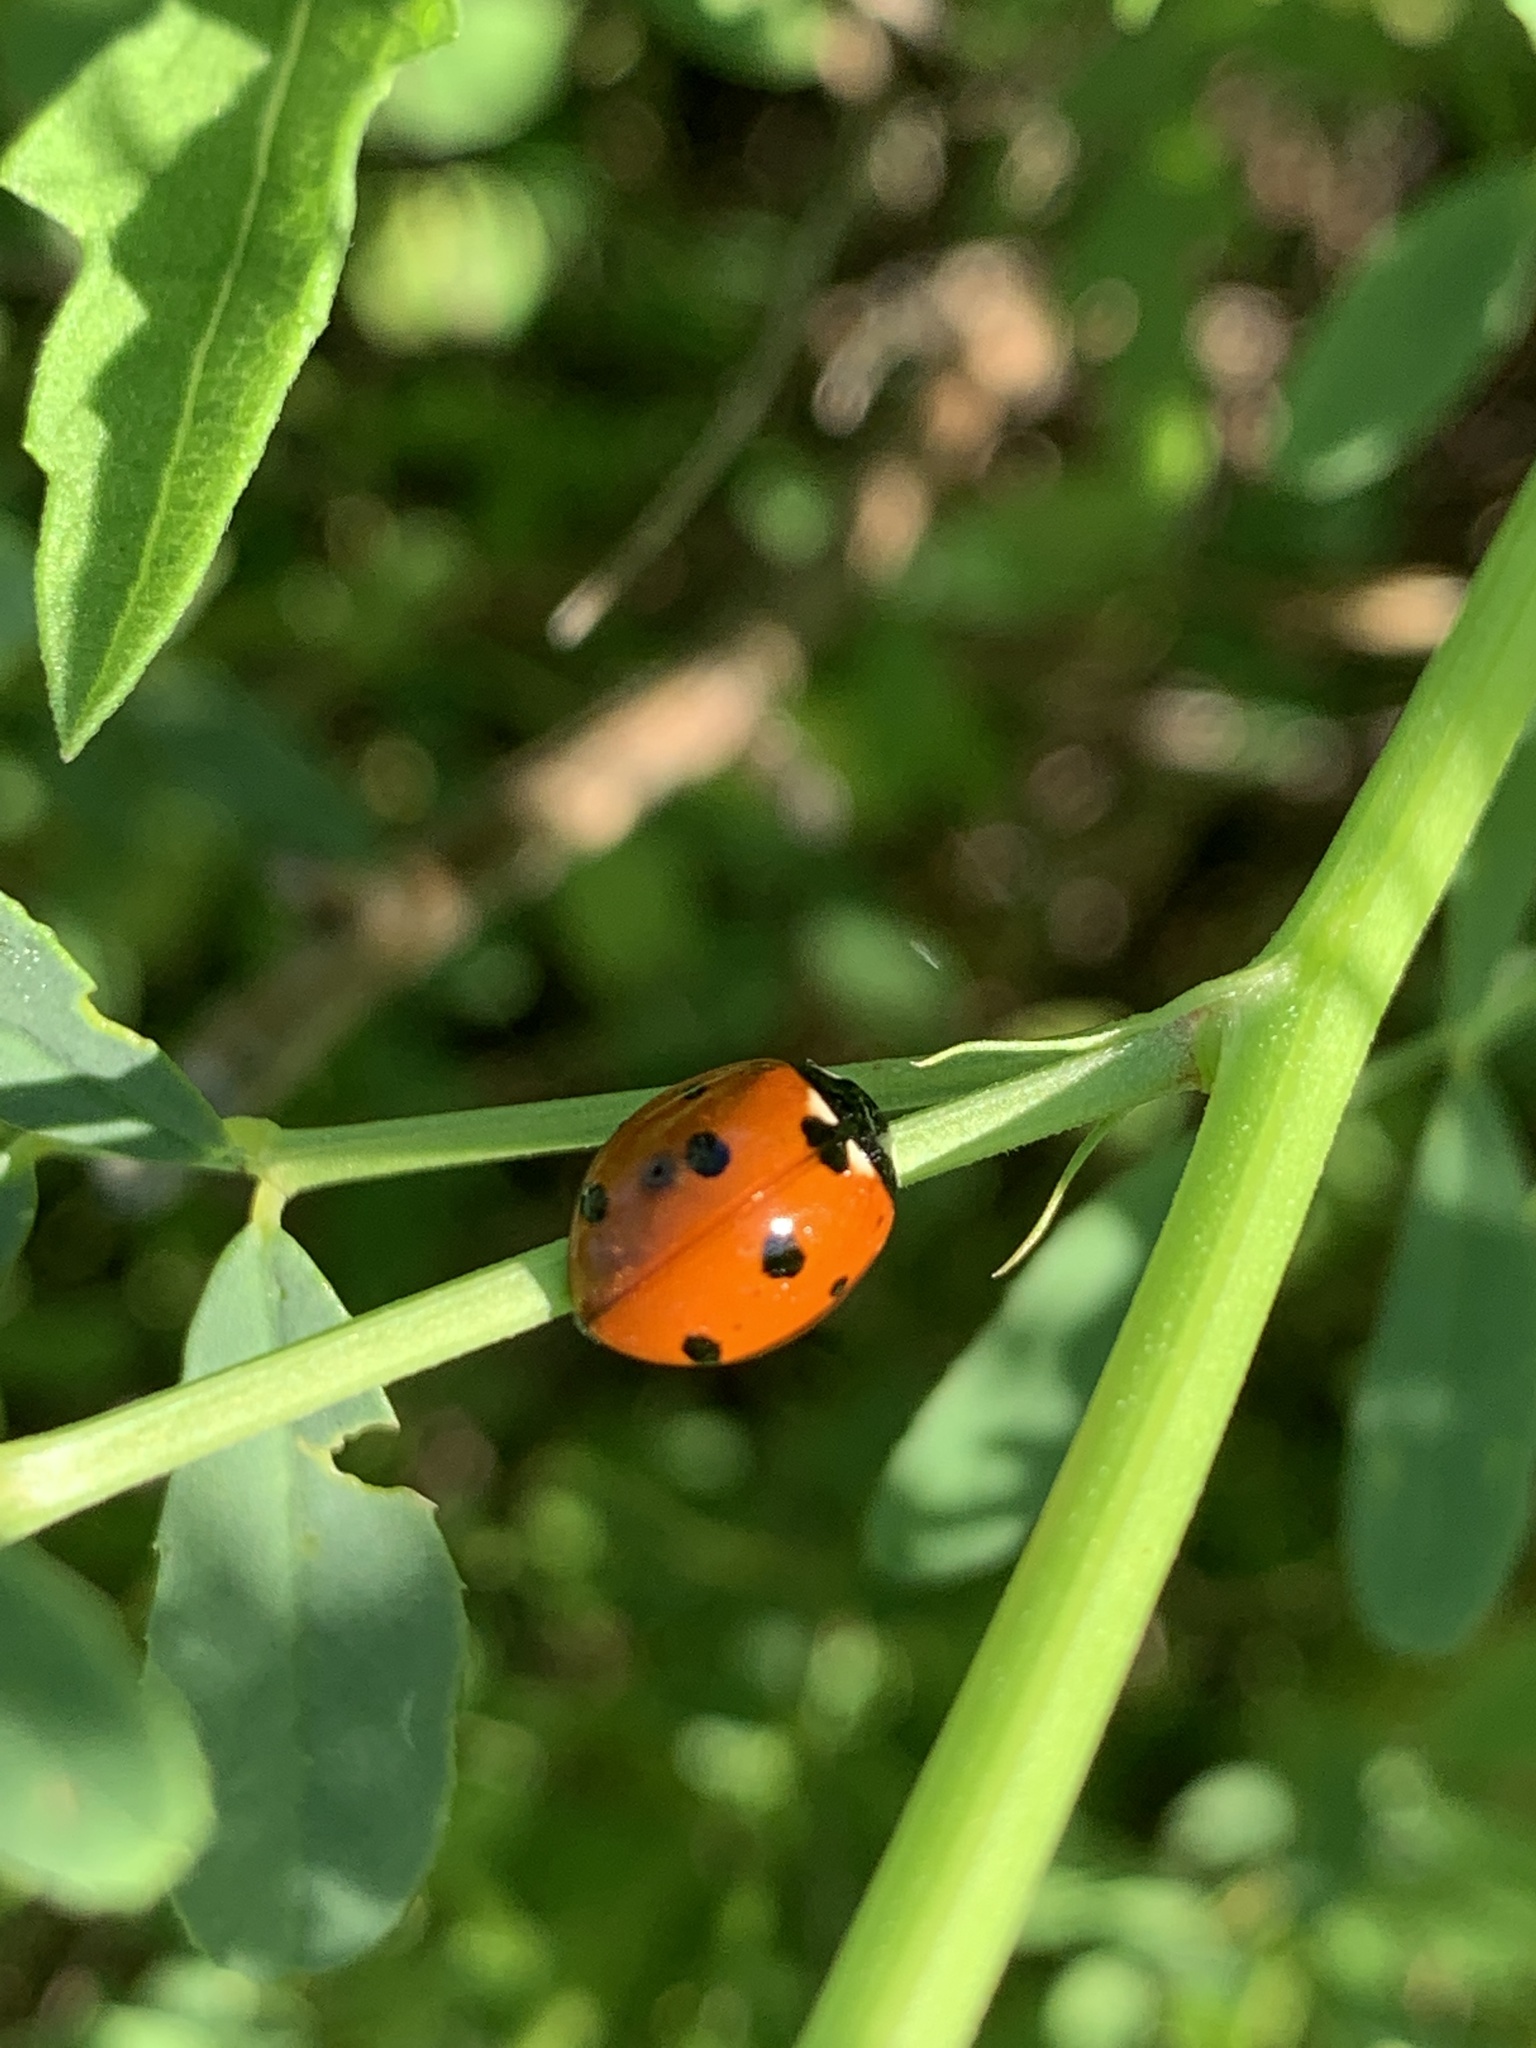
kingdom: Animalia
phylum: Arthropoda
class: Insecta
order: Coleoptera
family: Coccinellidae
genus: Coccinella
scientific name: Coccinella septempunctata
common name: Sevenspotted lady beetle
